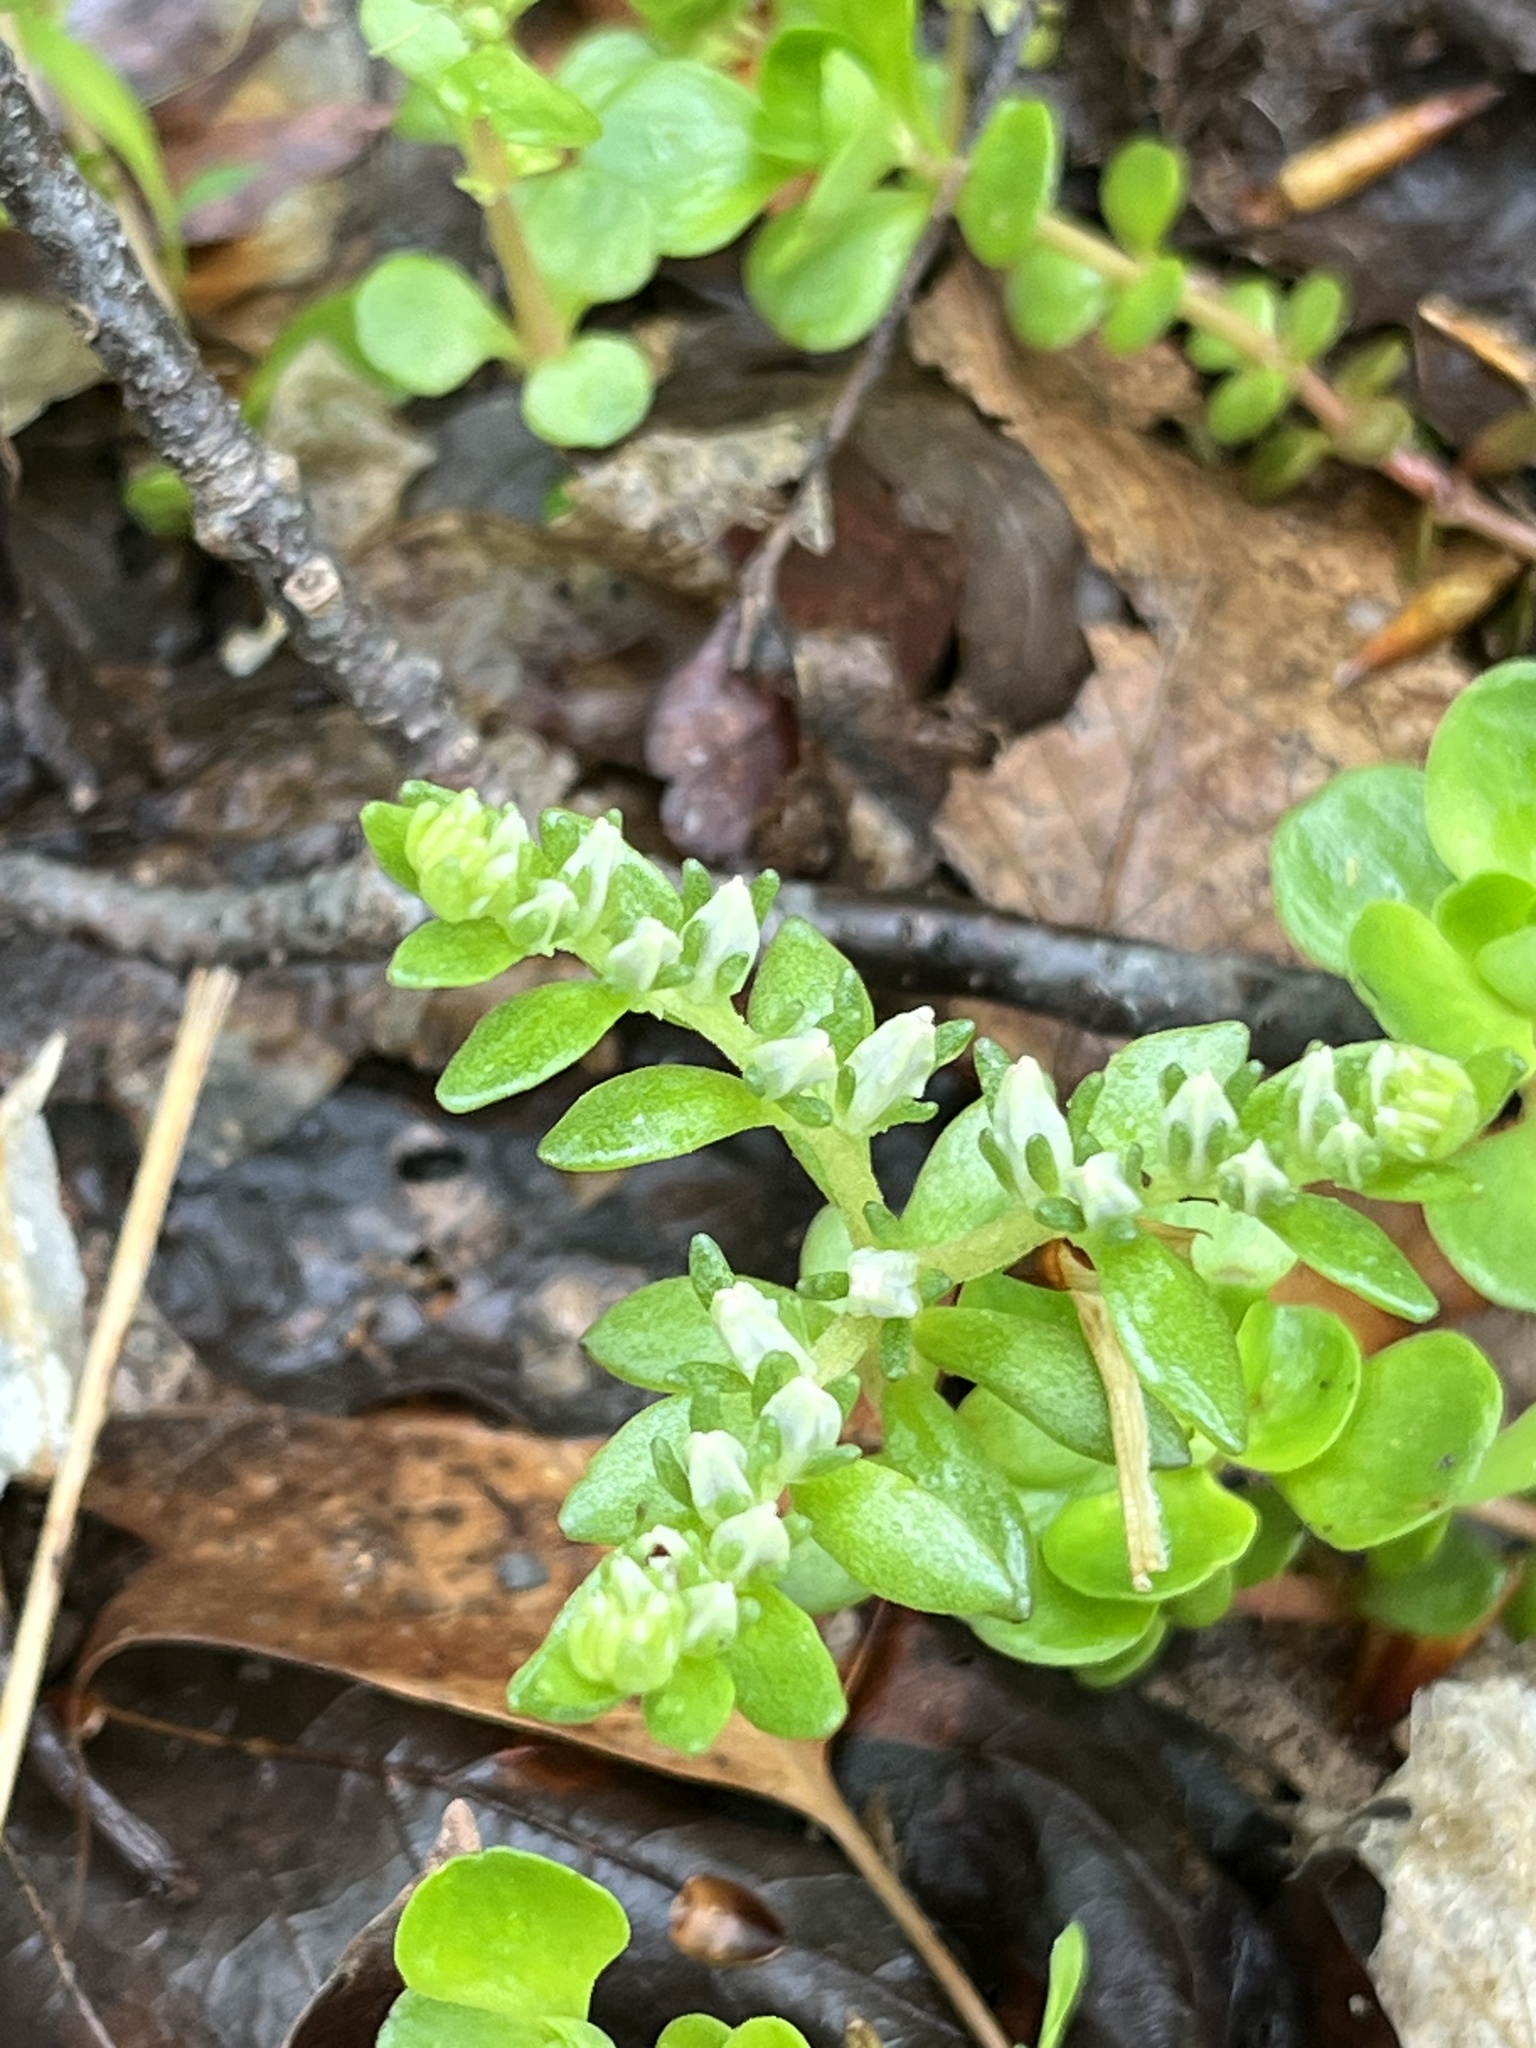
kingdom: Plantae
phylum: Tracheophyta
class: Magnoliopsida
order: Saxifragales
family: Crassulaceae
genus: Sedum
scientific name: Sedum ternatum
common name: Wild stonecrop
